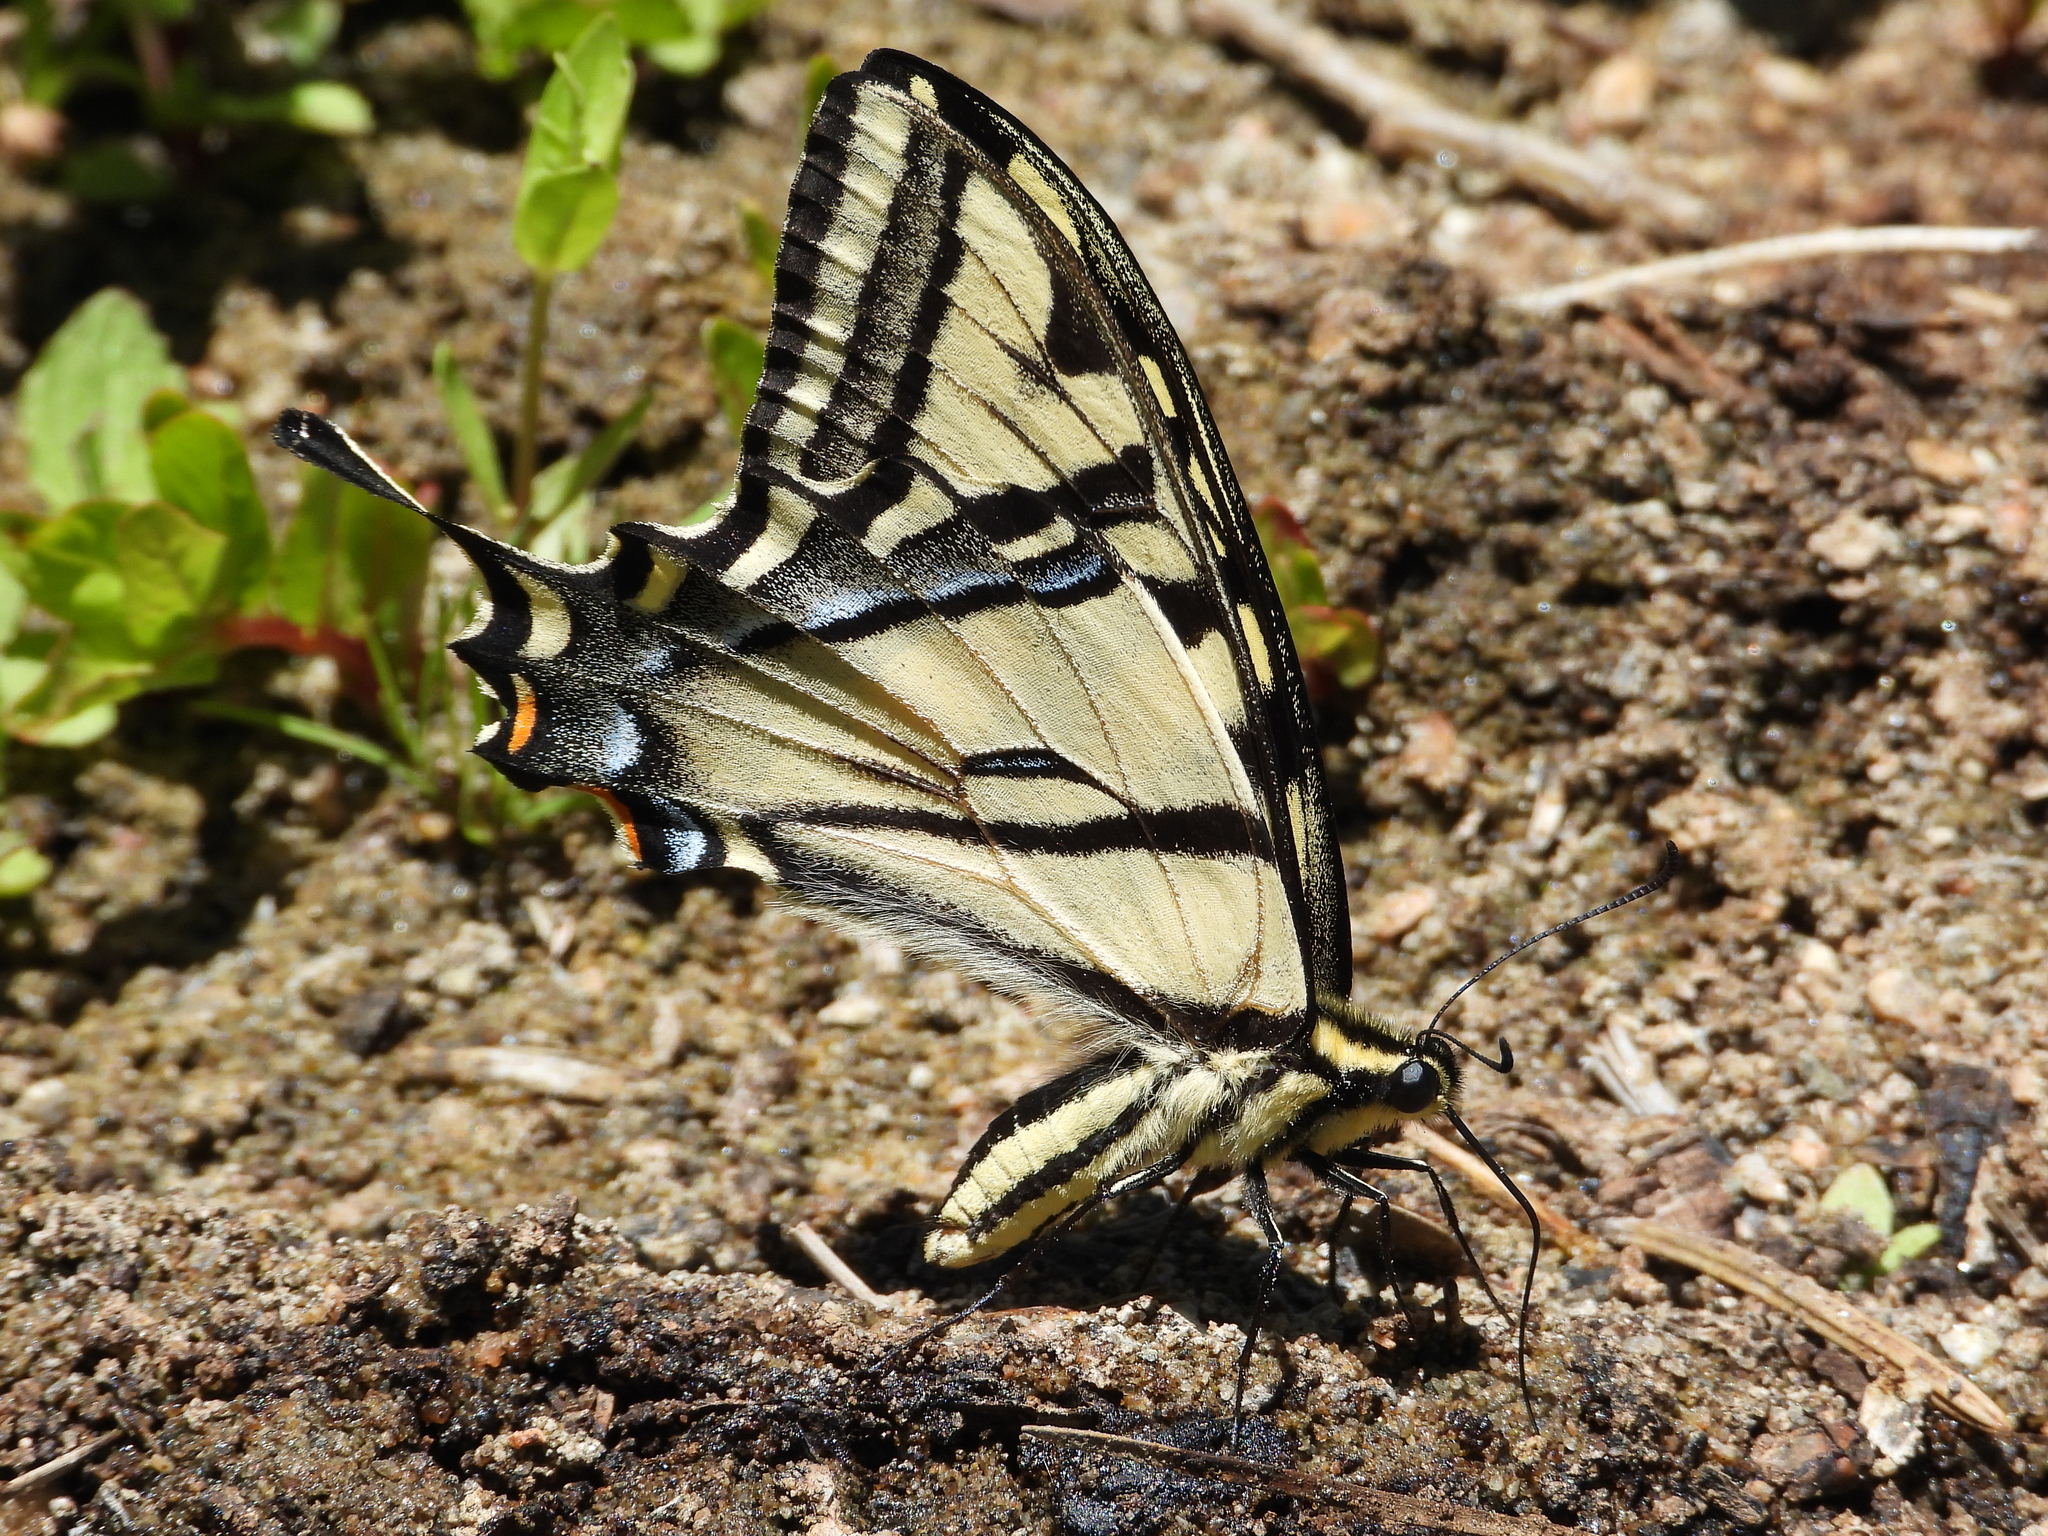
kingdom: Animalia
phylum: Arthropoda
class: Insecta
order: Lepidoptera
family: Papilionidae
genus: Papilio
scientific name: Papilio rutulus
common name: Western tiger swallowtail
